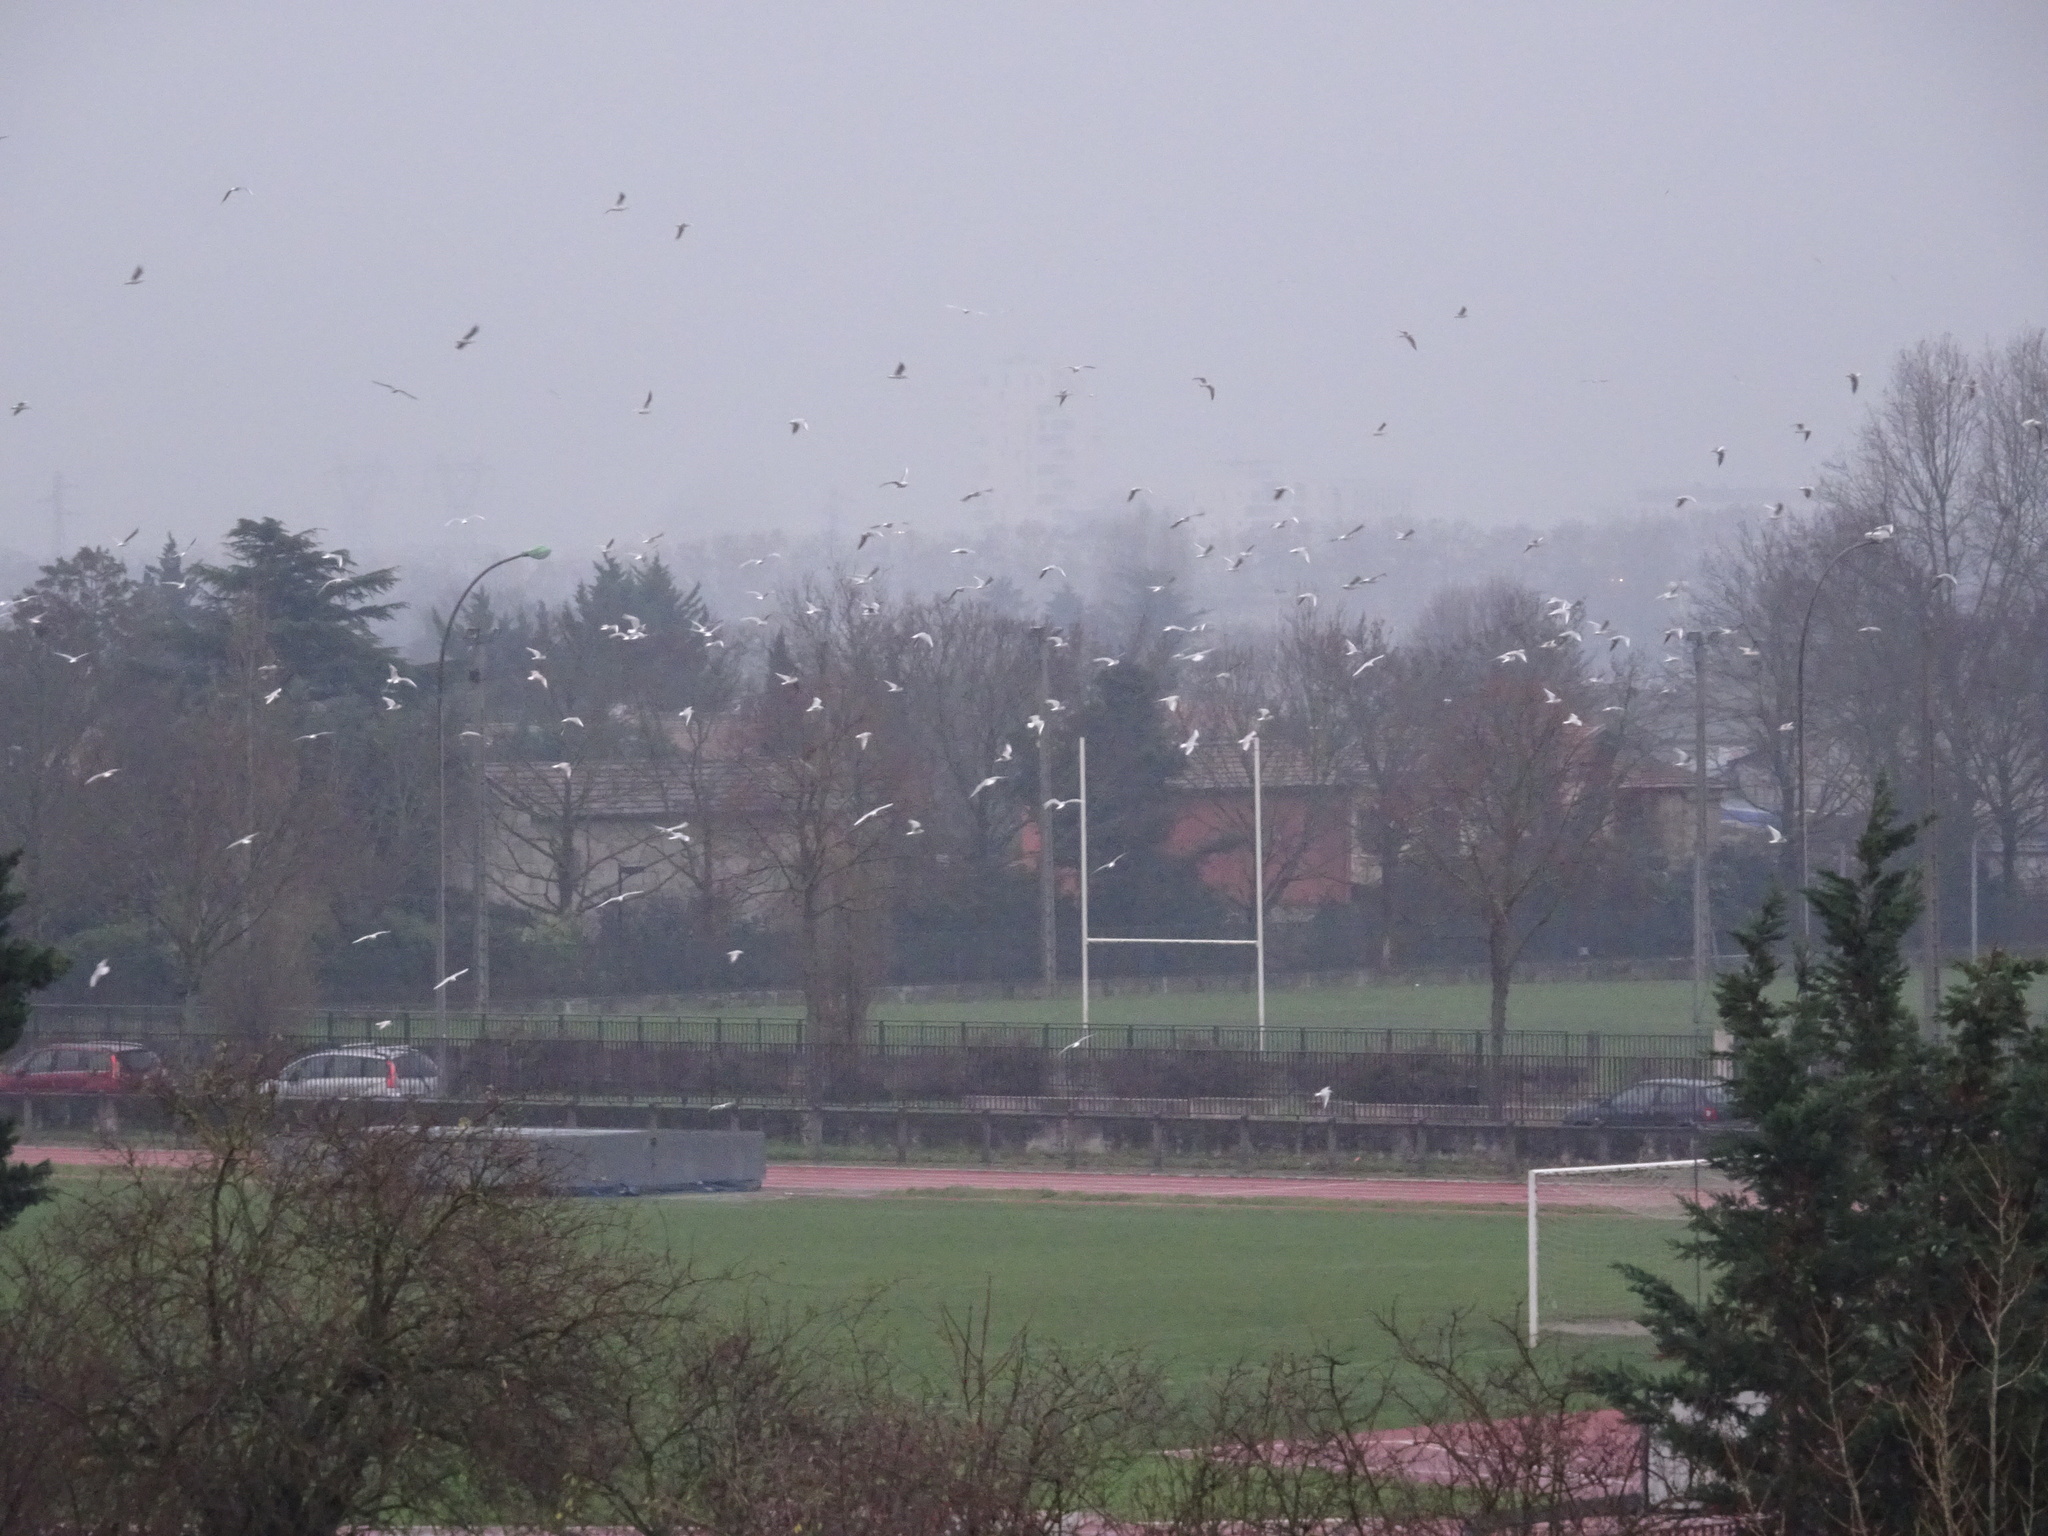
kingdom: Animalia
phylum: Chordata
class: Aves
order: Charadriiformes
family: Laridae
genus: Chroicocephalus
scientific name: Chroicocephalus ridibundus
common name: Black-headed gull
